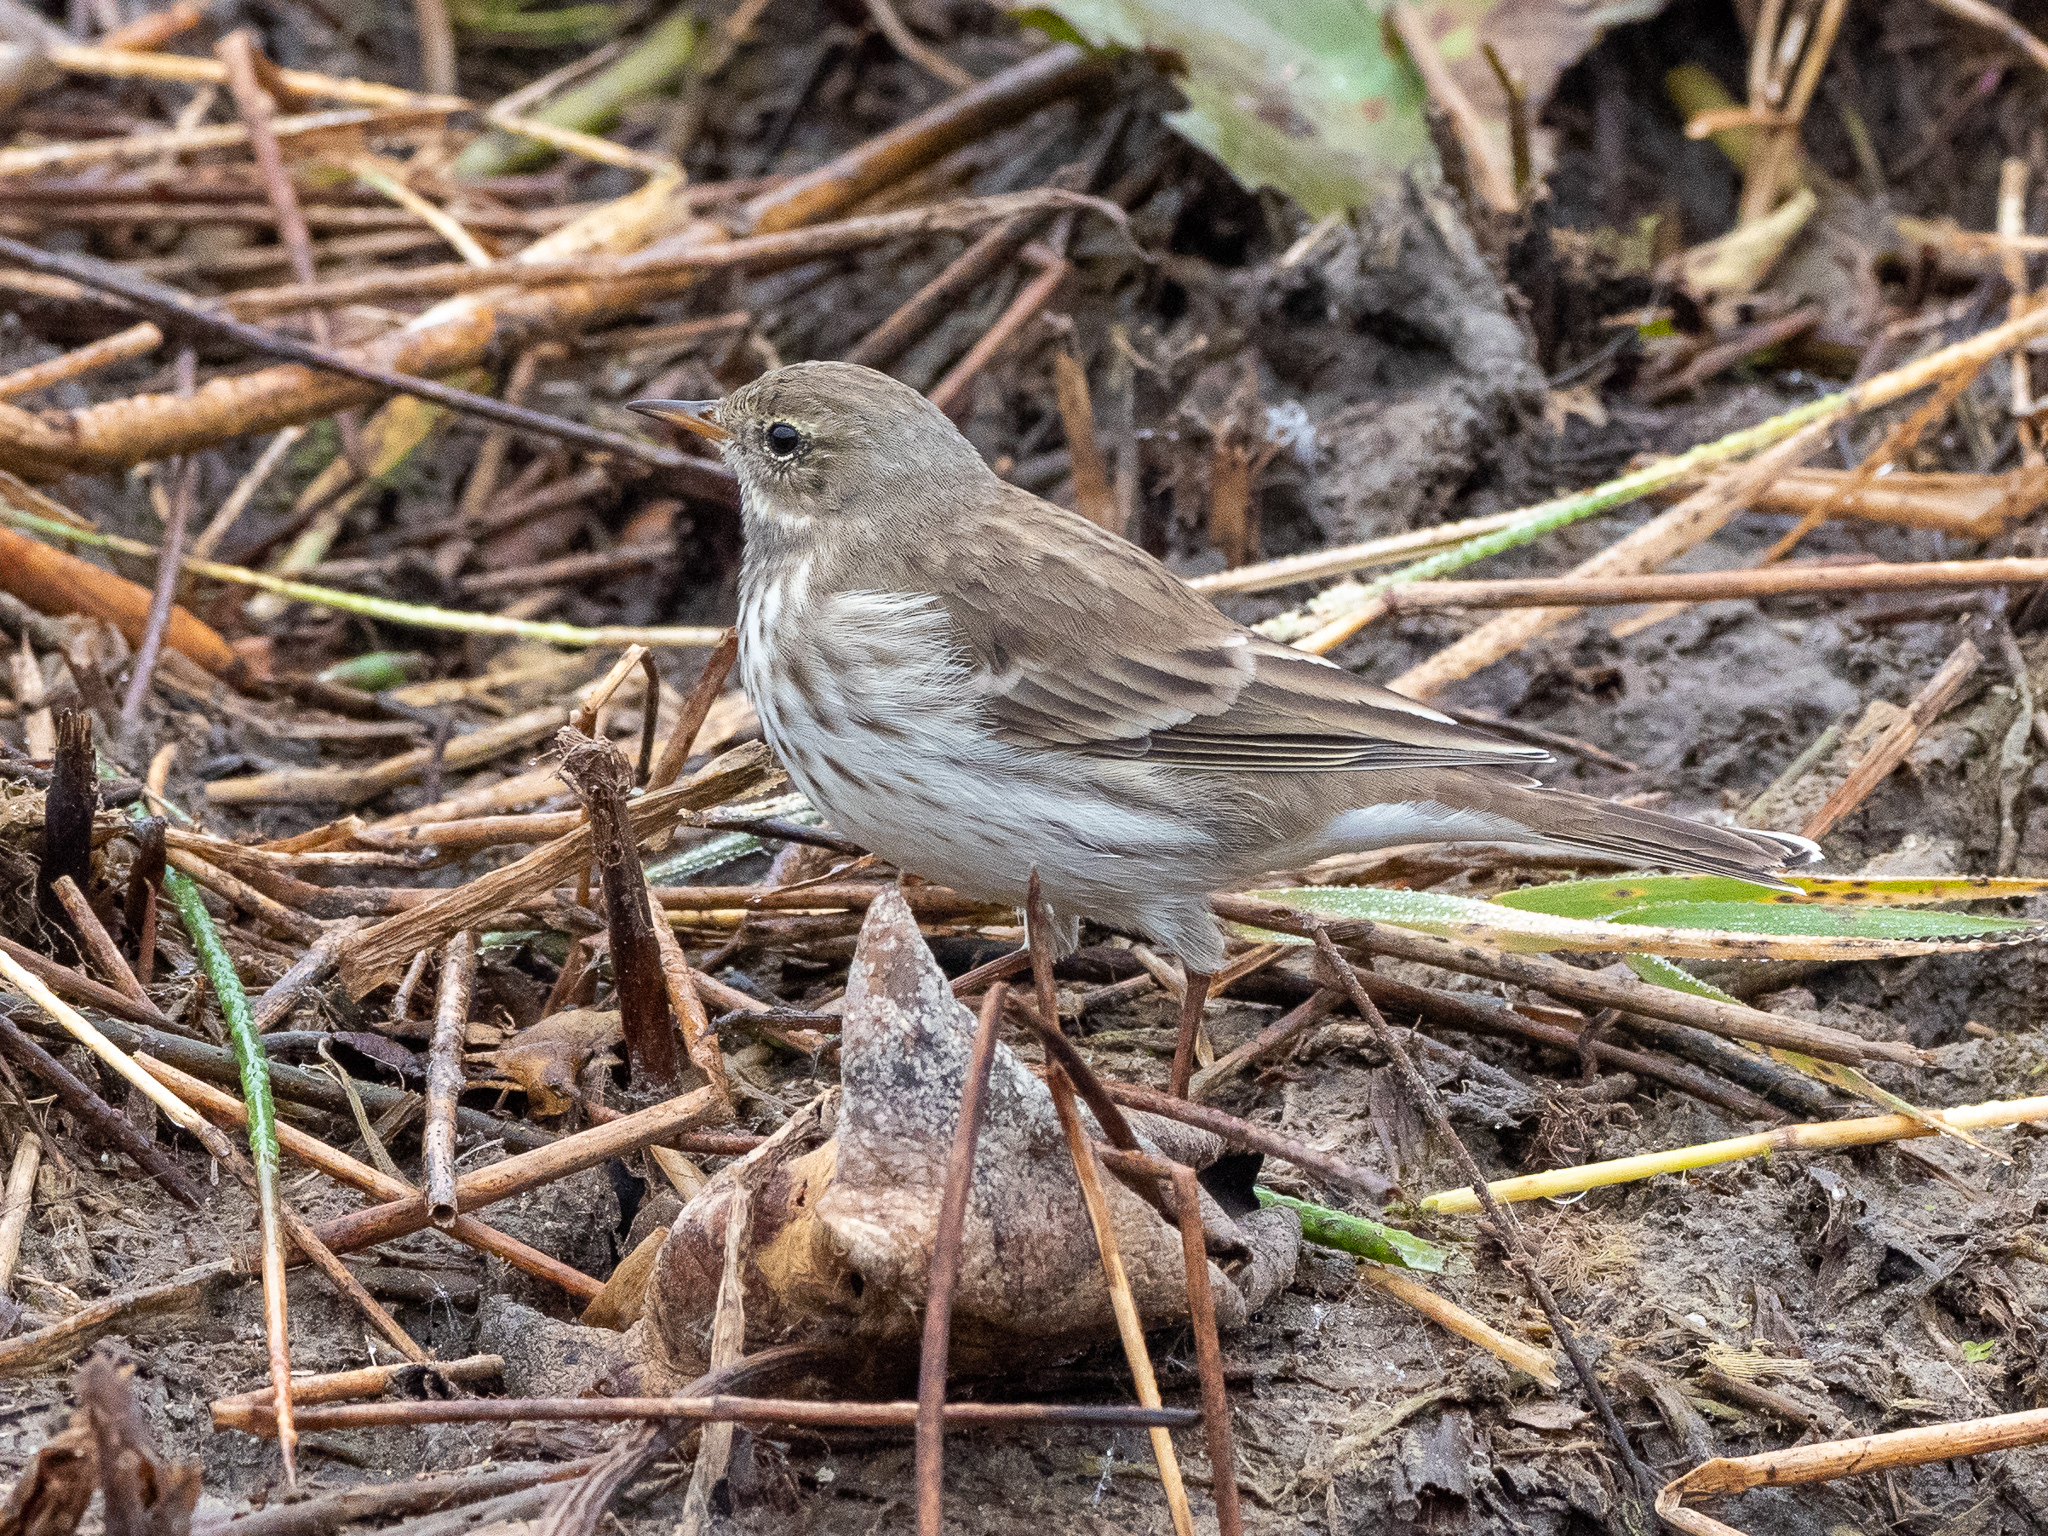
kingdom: Animalia
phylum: Chordata
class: Aves
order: Passeriformes
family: Motacillidae
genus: Anthus
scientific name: Anthus spinoletta
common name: Water pipit
